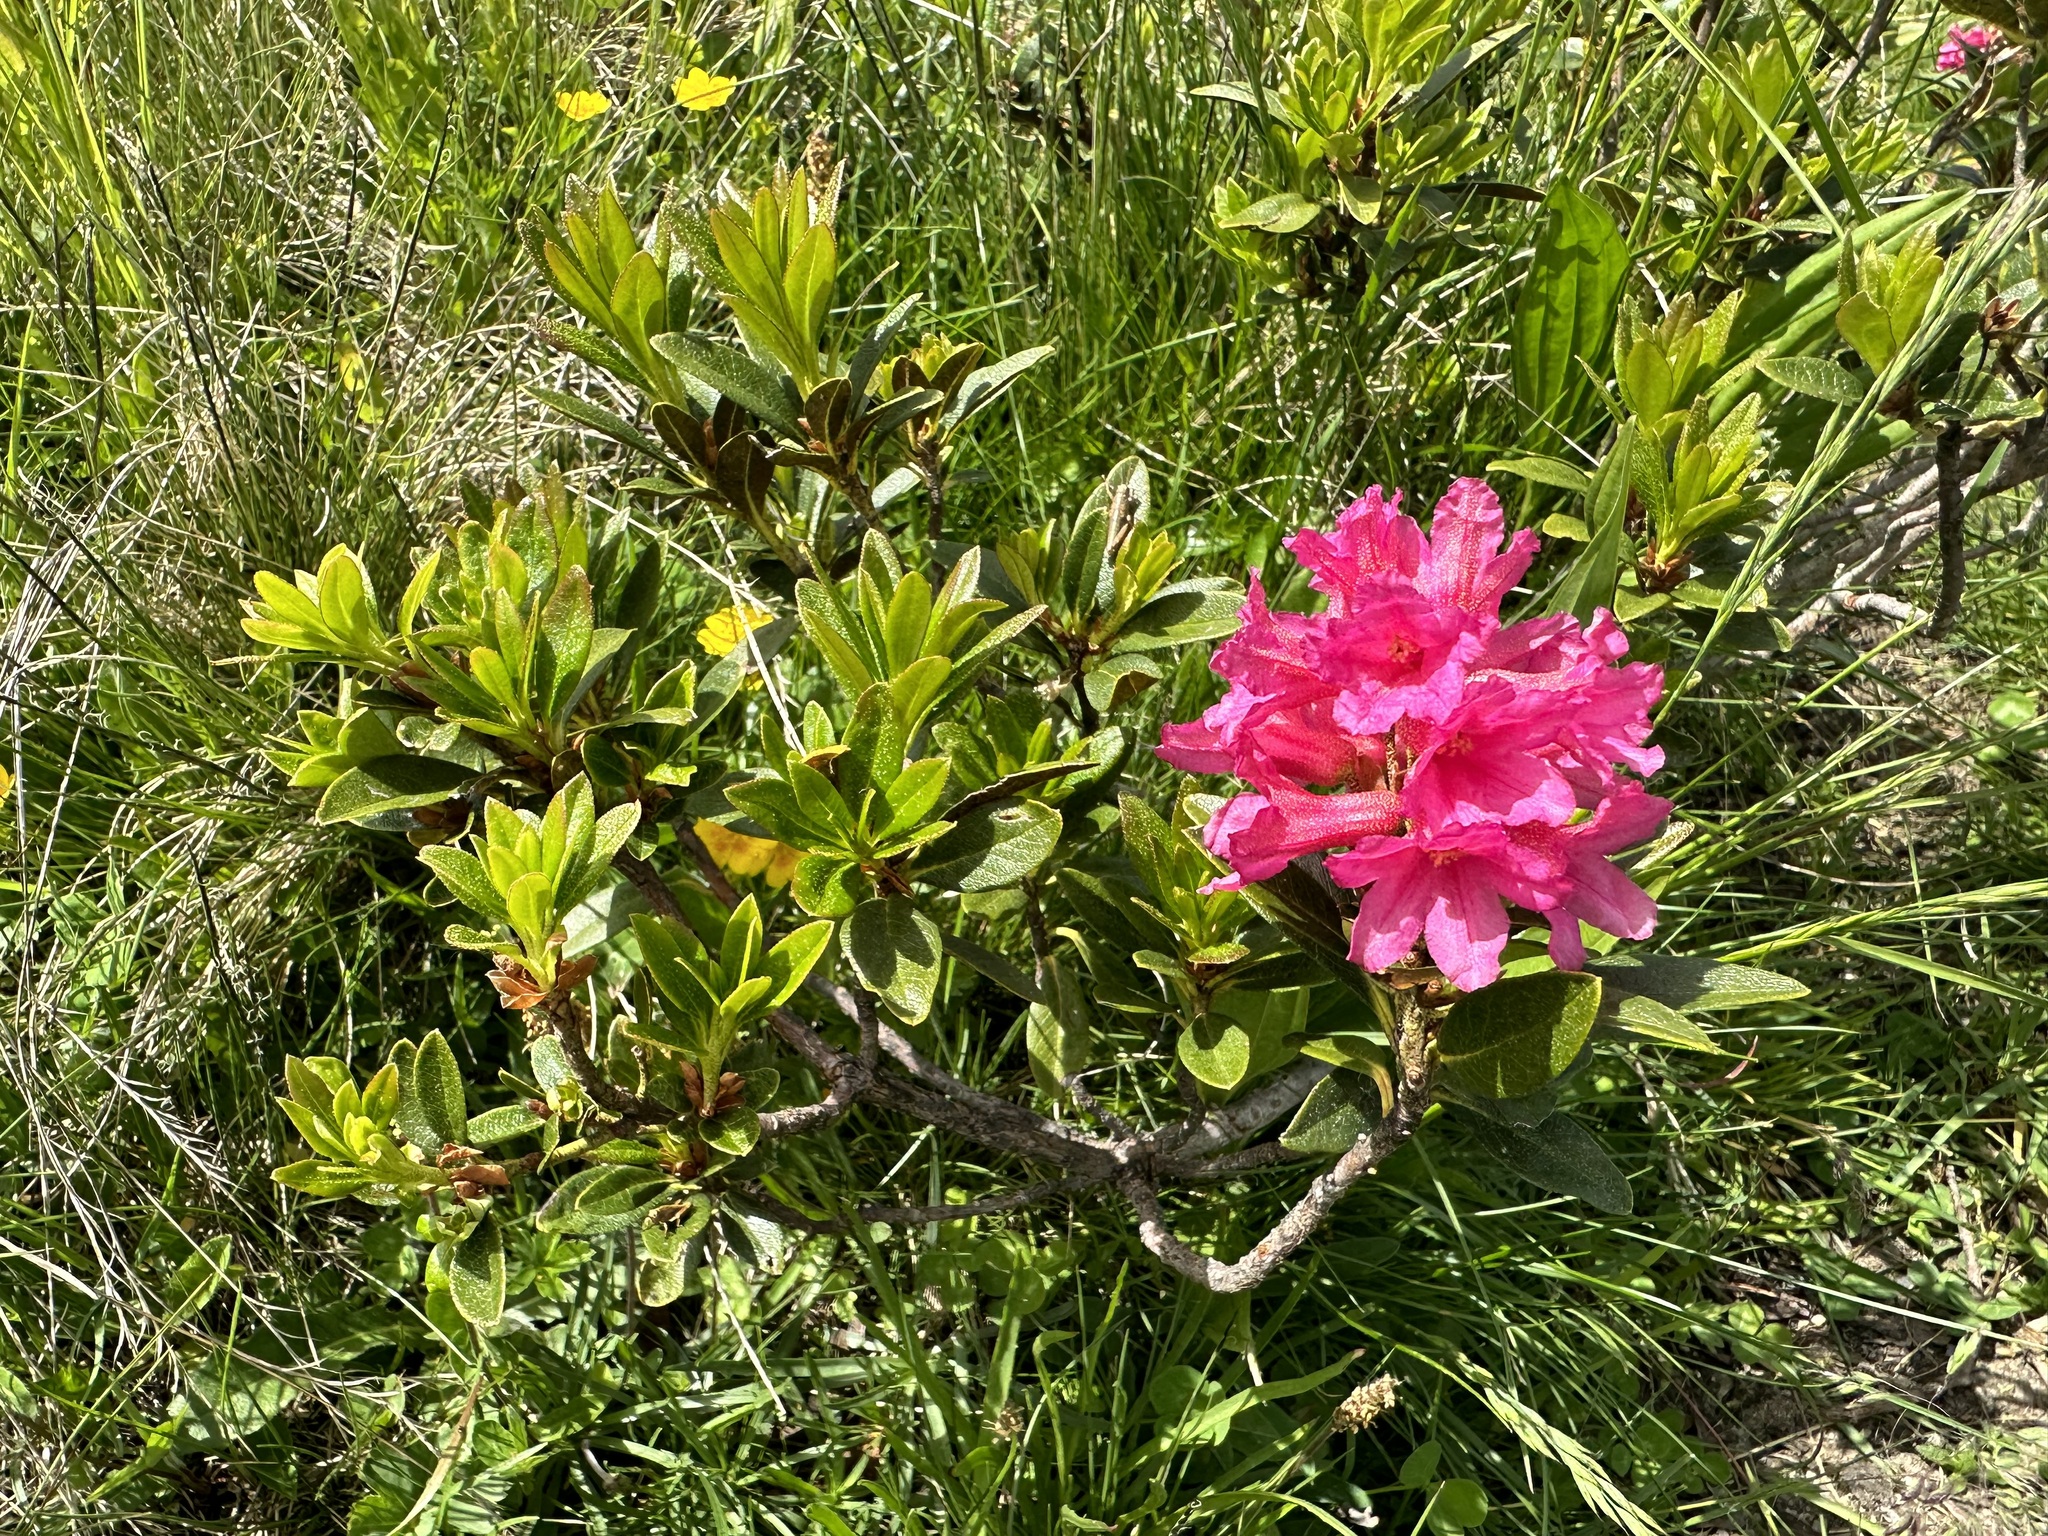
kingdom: Plantae
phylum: Tracheophyta
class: Magnoliopsida
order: Ericales
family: Ericaceae
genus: Rhododendron
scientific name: Rhododendron ferrugineum
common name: Alpenrose
